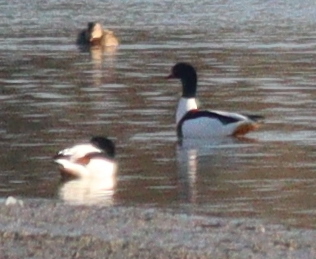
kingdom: Animalia
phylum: Chordata
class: Aves
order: Anseriformes
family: Anatidae
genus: Tadorna
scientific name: Tadorna tadorna
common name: Common shelduck
